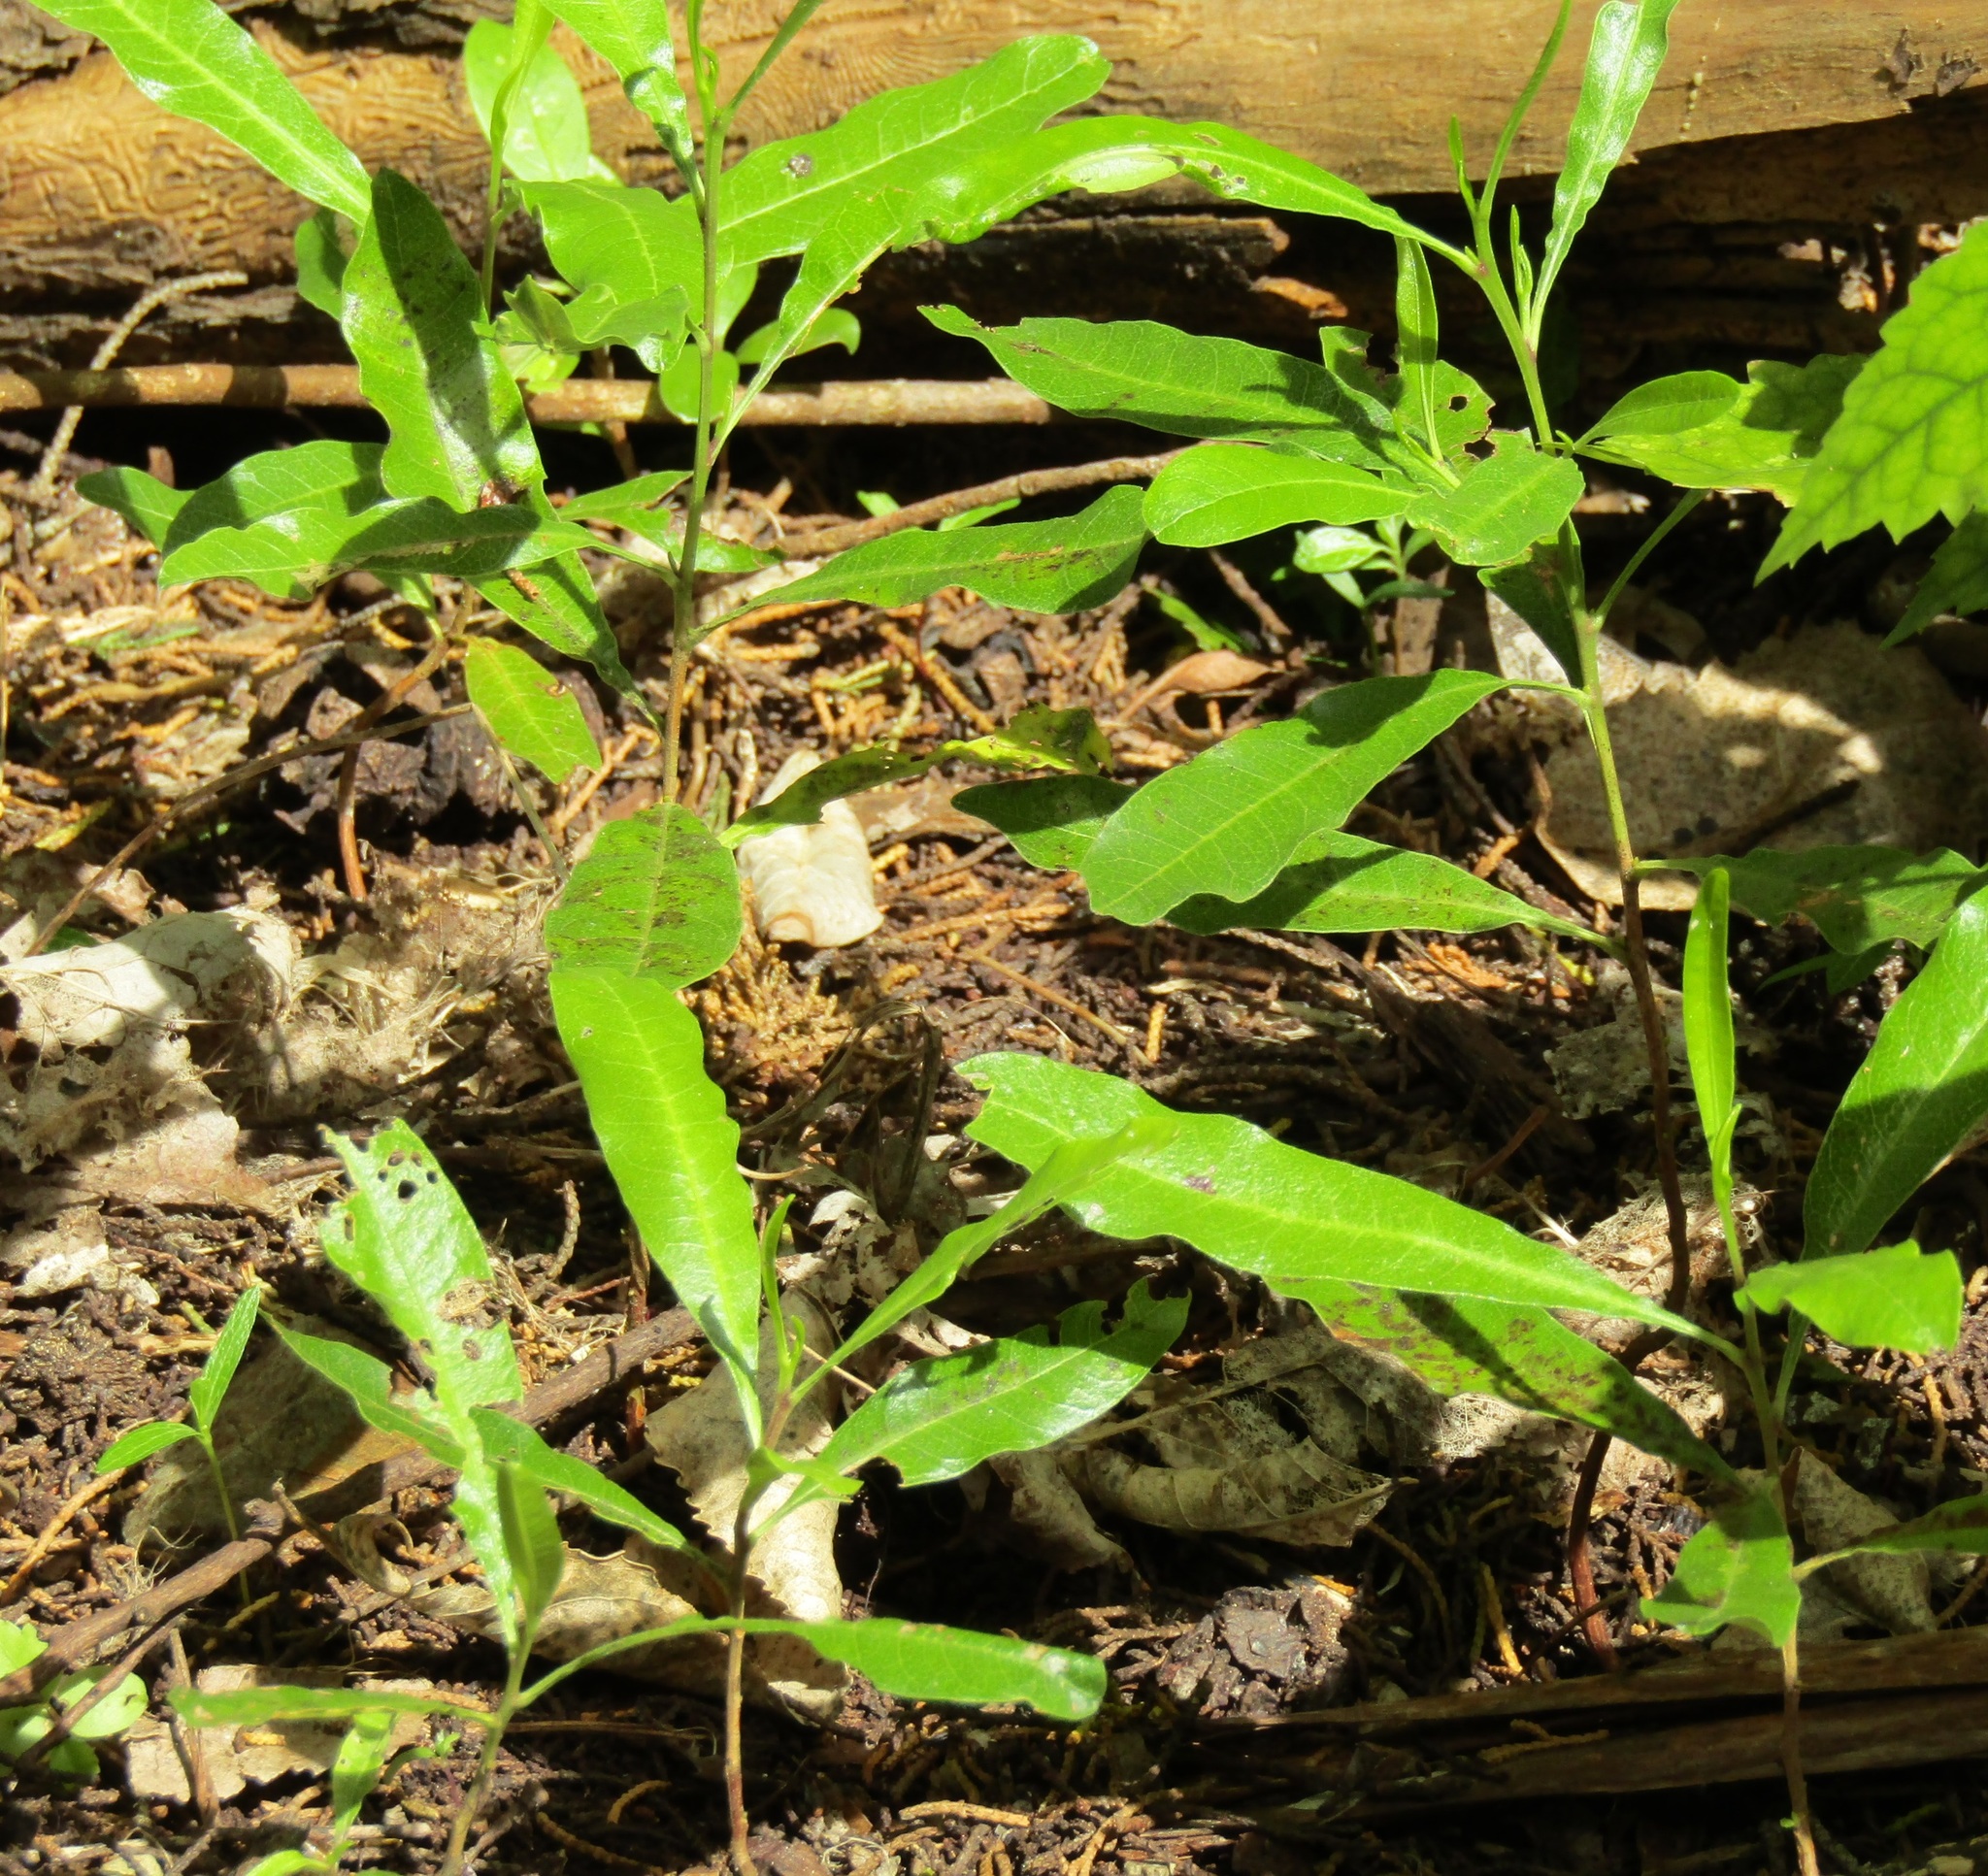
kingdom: Plantae
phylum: Tracheophyta
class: Magnoliopsida
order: Sapindales
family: Sapindaceae
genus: Dodonaea
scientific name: Dodonaea viscosa
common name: Hopbush
